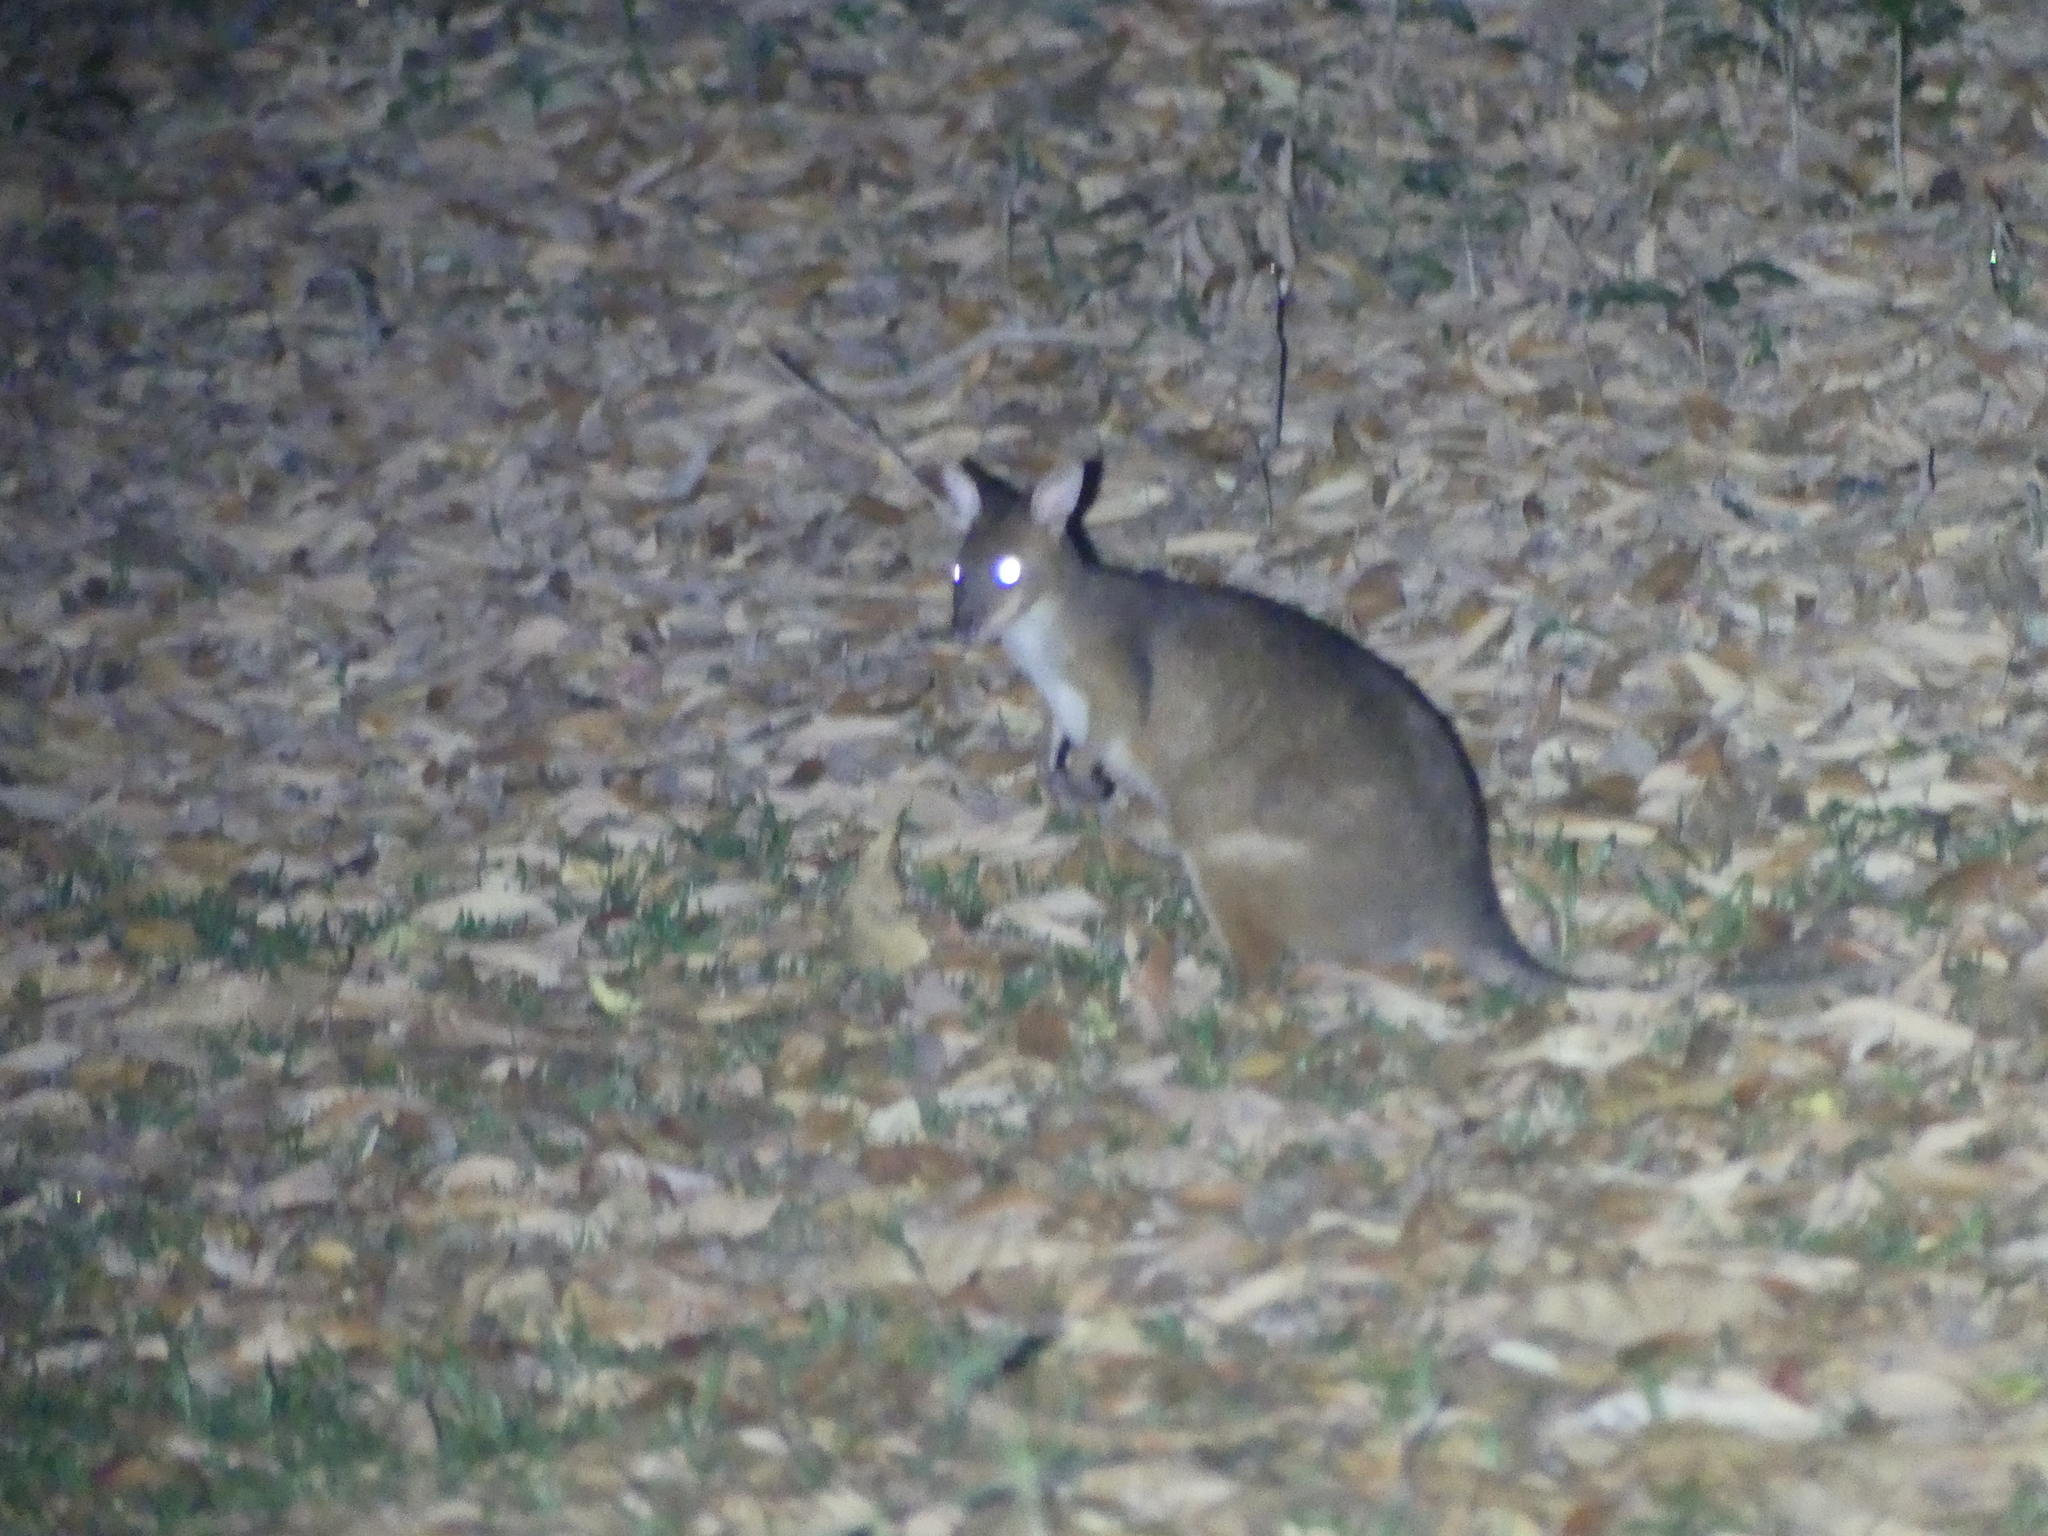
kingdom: Animalia
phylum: Chordata
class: Mammalia
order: Diprotodontia
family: Macropodidae
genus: Thylogale
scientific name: Thylogale stigmatica
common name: Red-legged pademelon
